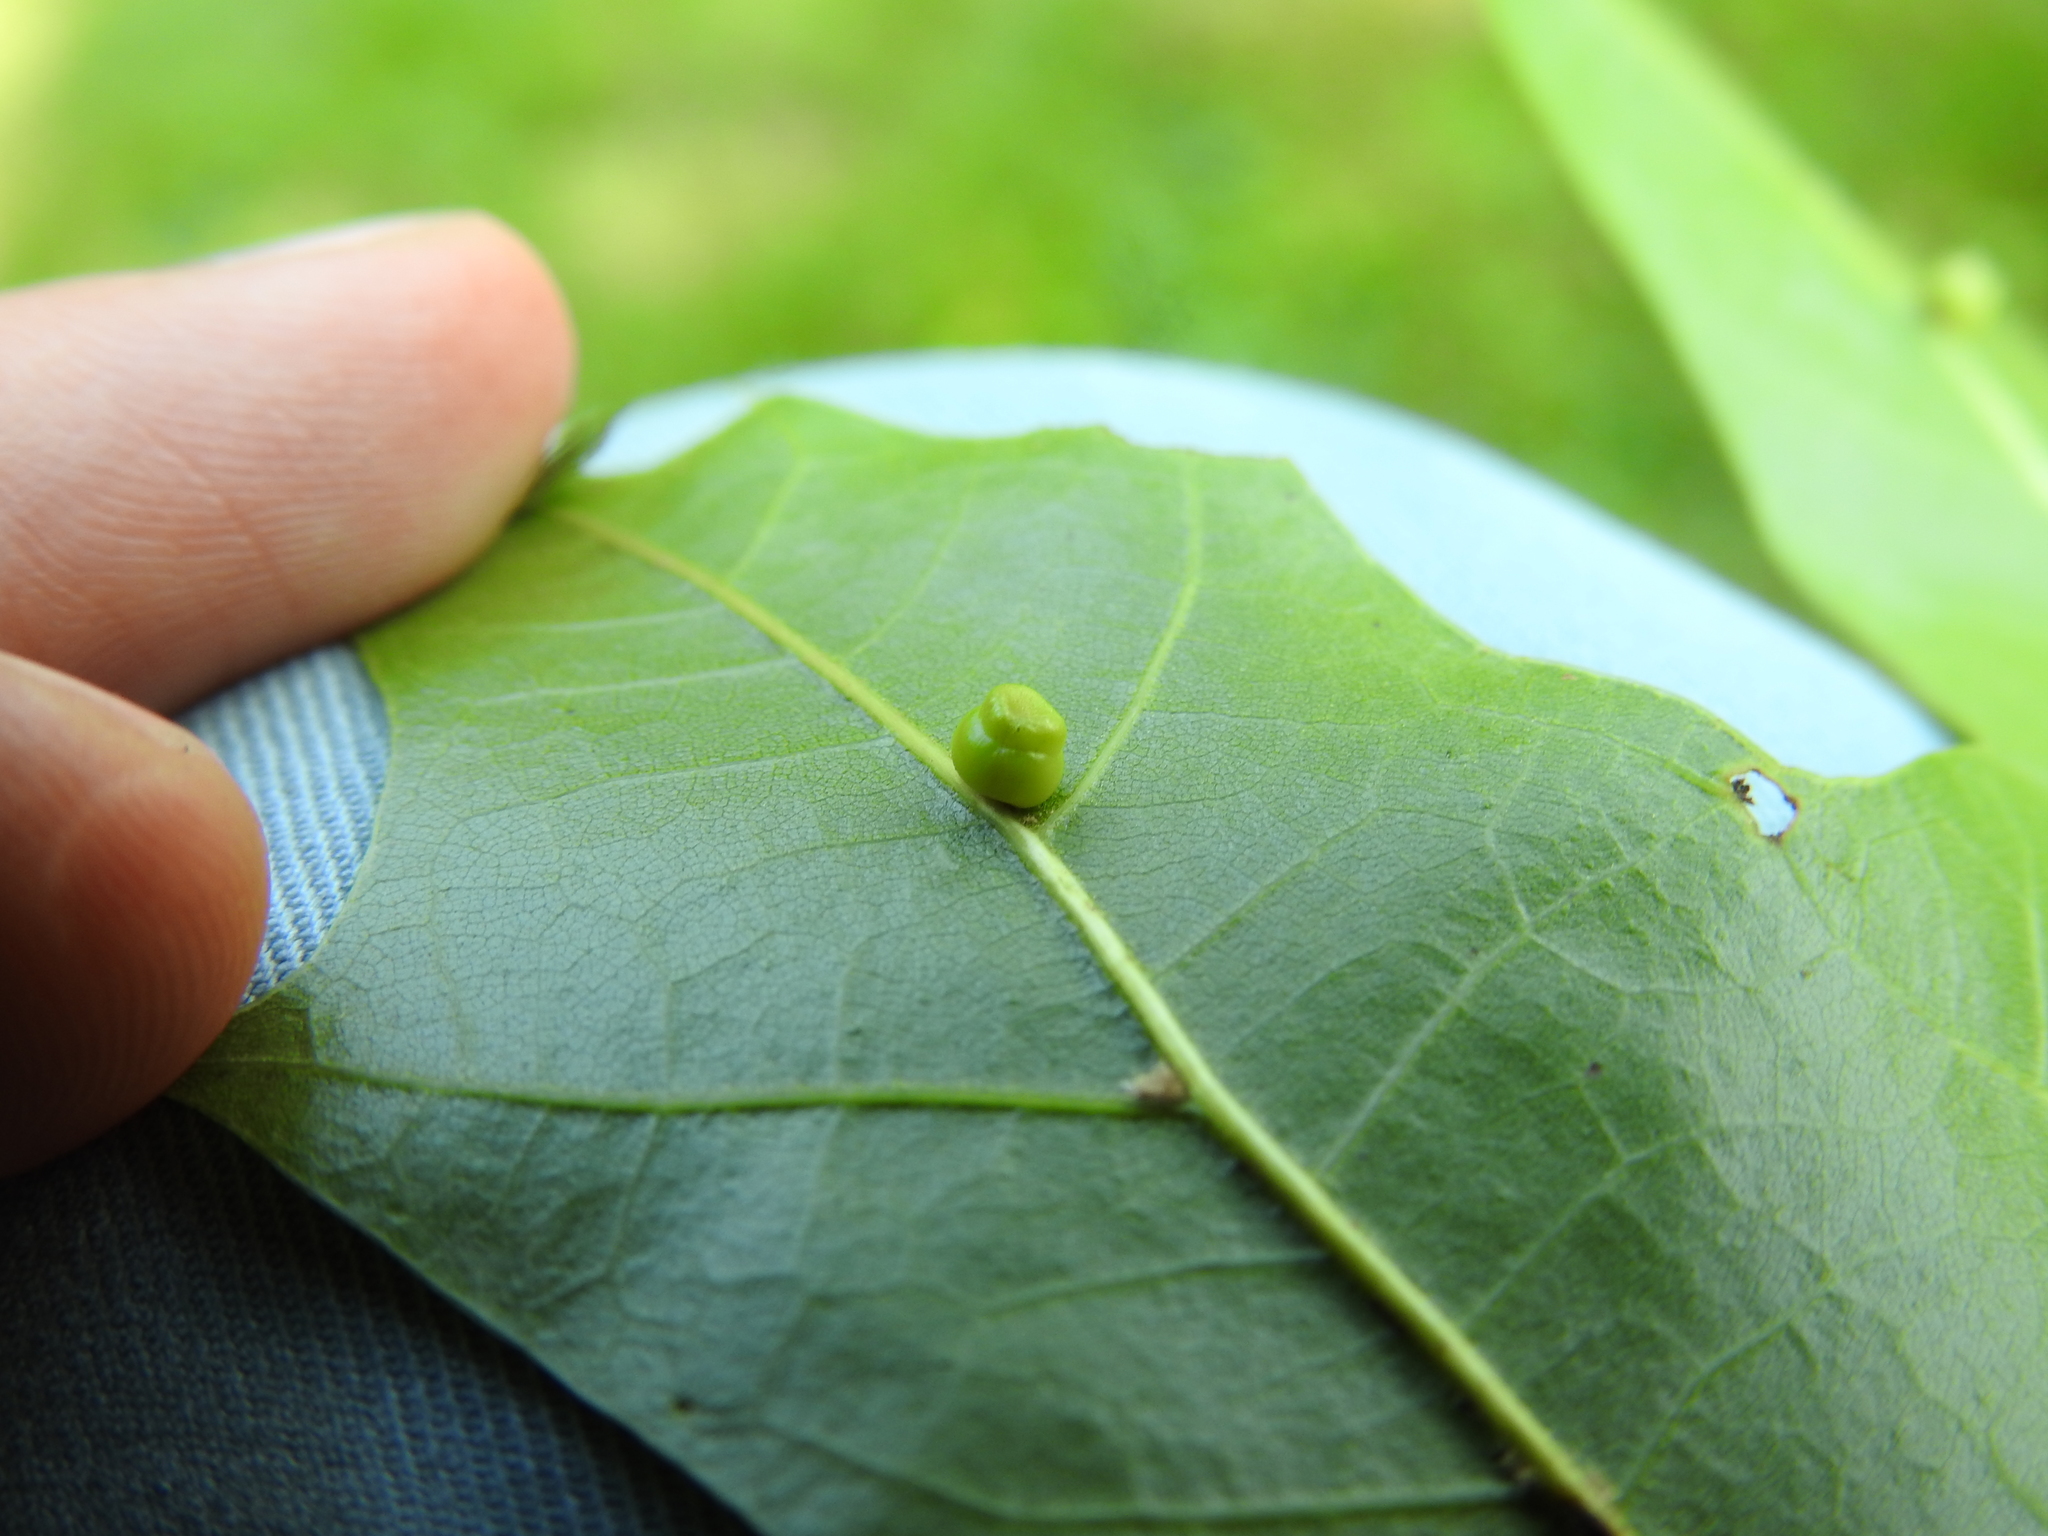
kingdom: Animalia
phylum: Arthropoda
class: Insecta
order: Hymenoptera
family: Cynipidae
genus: Kokkocynips
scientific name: Kokkocynips rileyi
